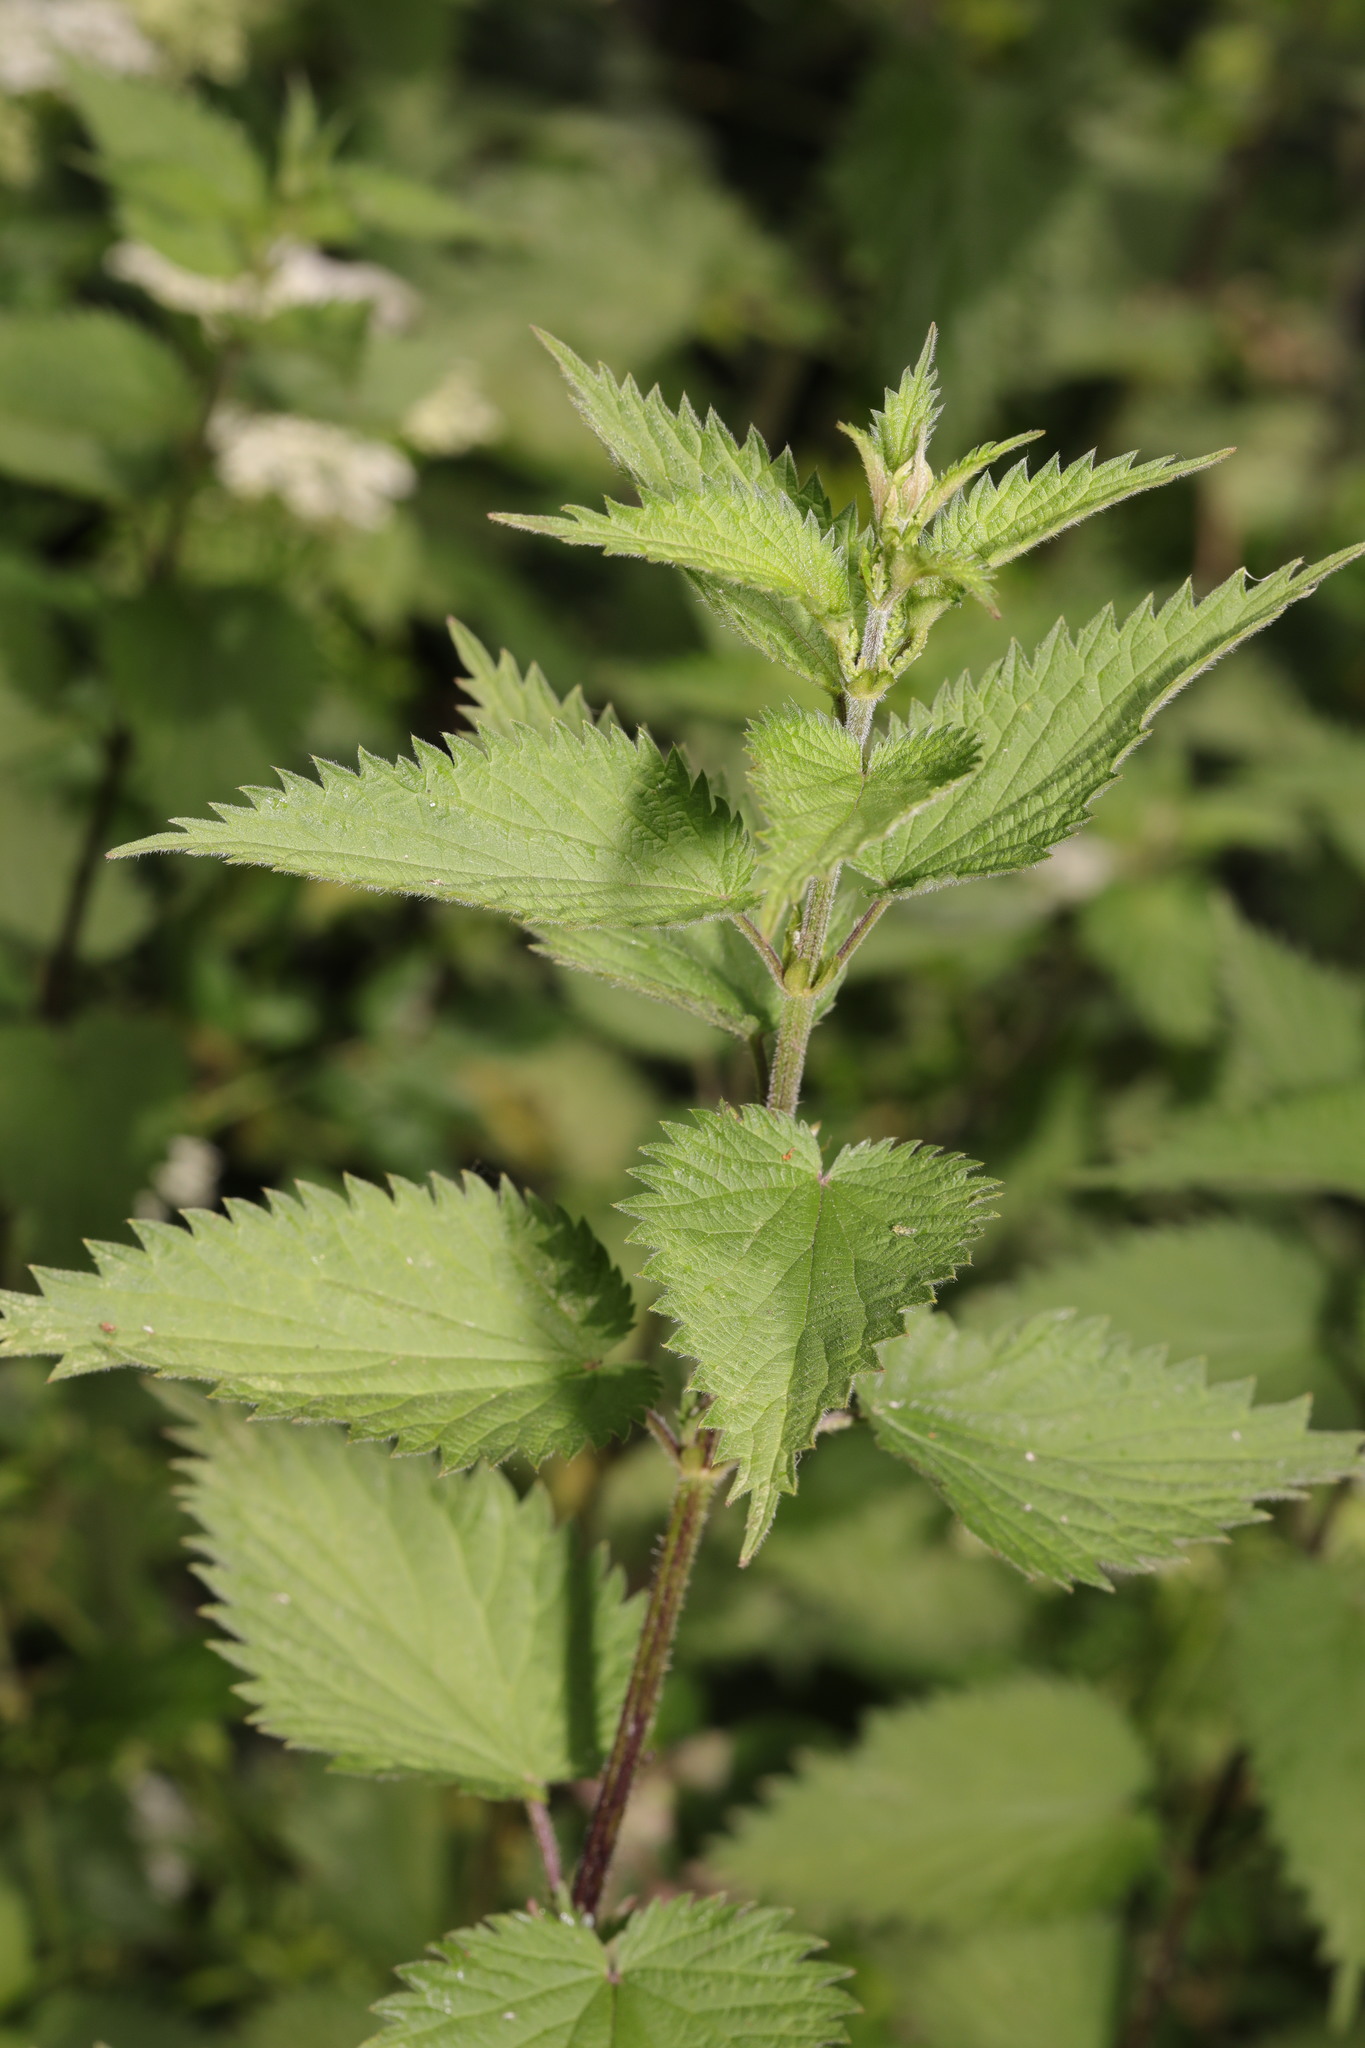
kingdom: Plantae
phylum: Tracheophyta
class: Magnoliopsida
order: Rosales
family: Urticaceae
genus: Urtica
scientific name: Urtica dioica
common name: Common nettle
